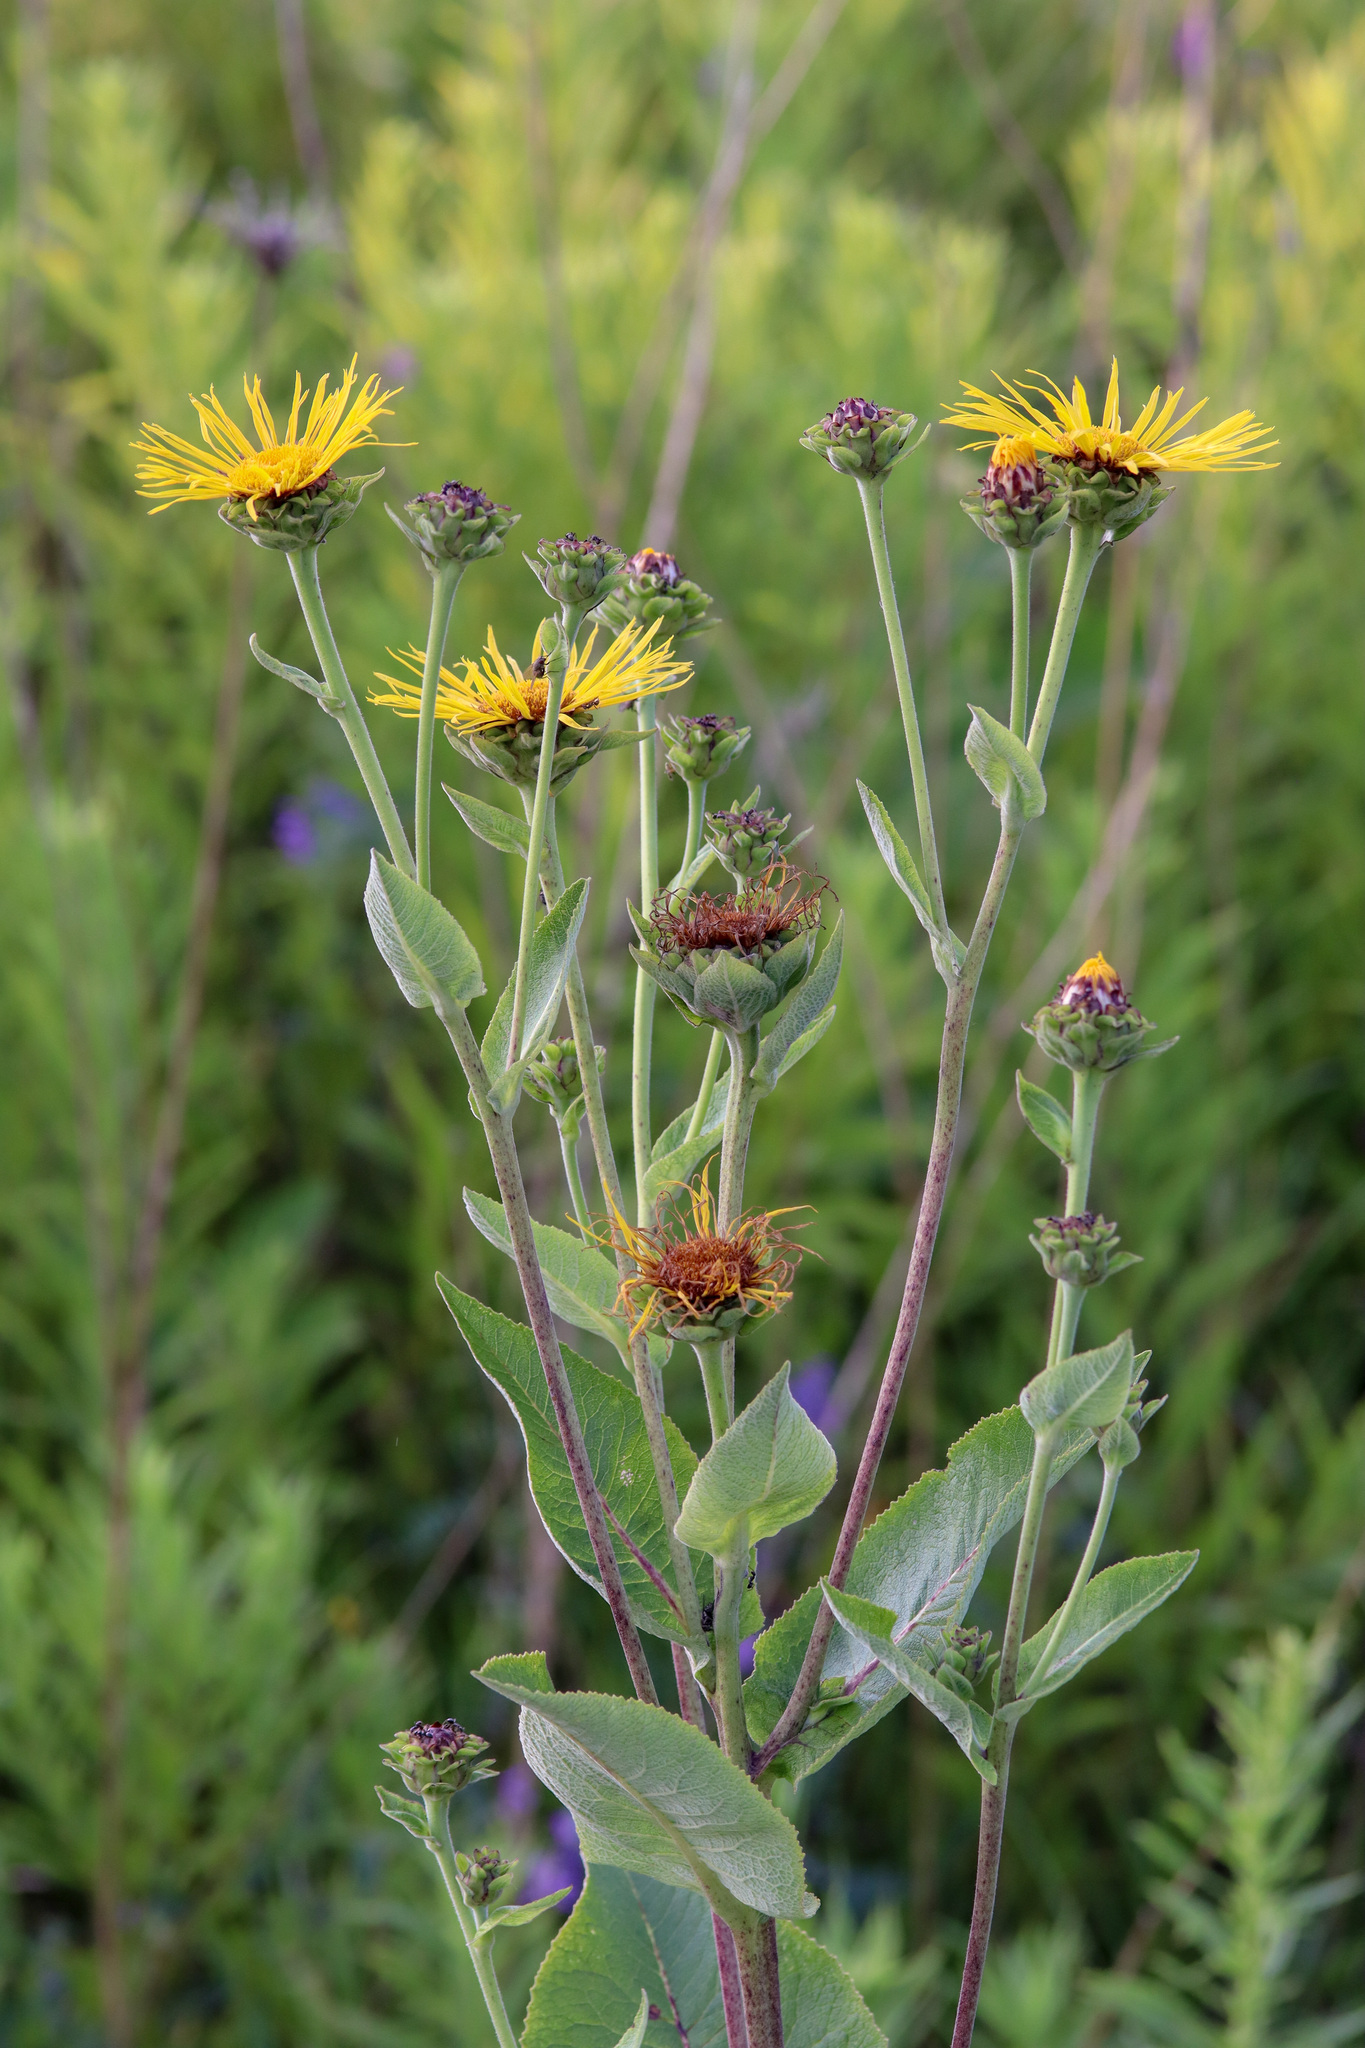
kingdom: Plantae
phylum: Tracheophyta
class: Magnoliopsida
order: Asterales
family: Asteraceae
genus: Inula
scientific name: Inula helenium
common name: Elecampane
